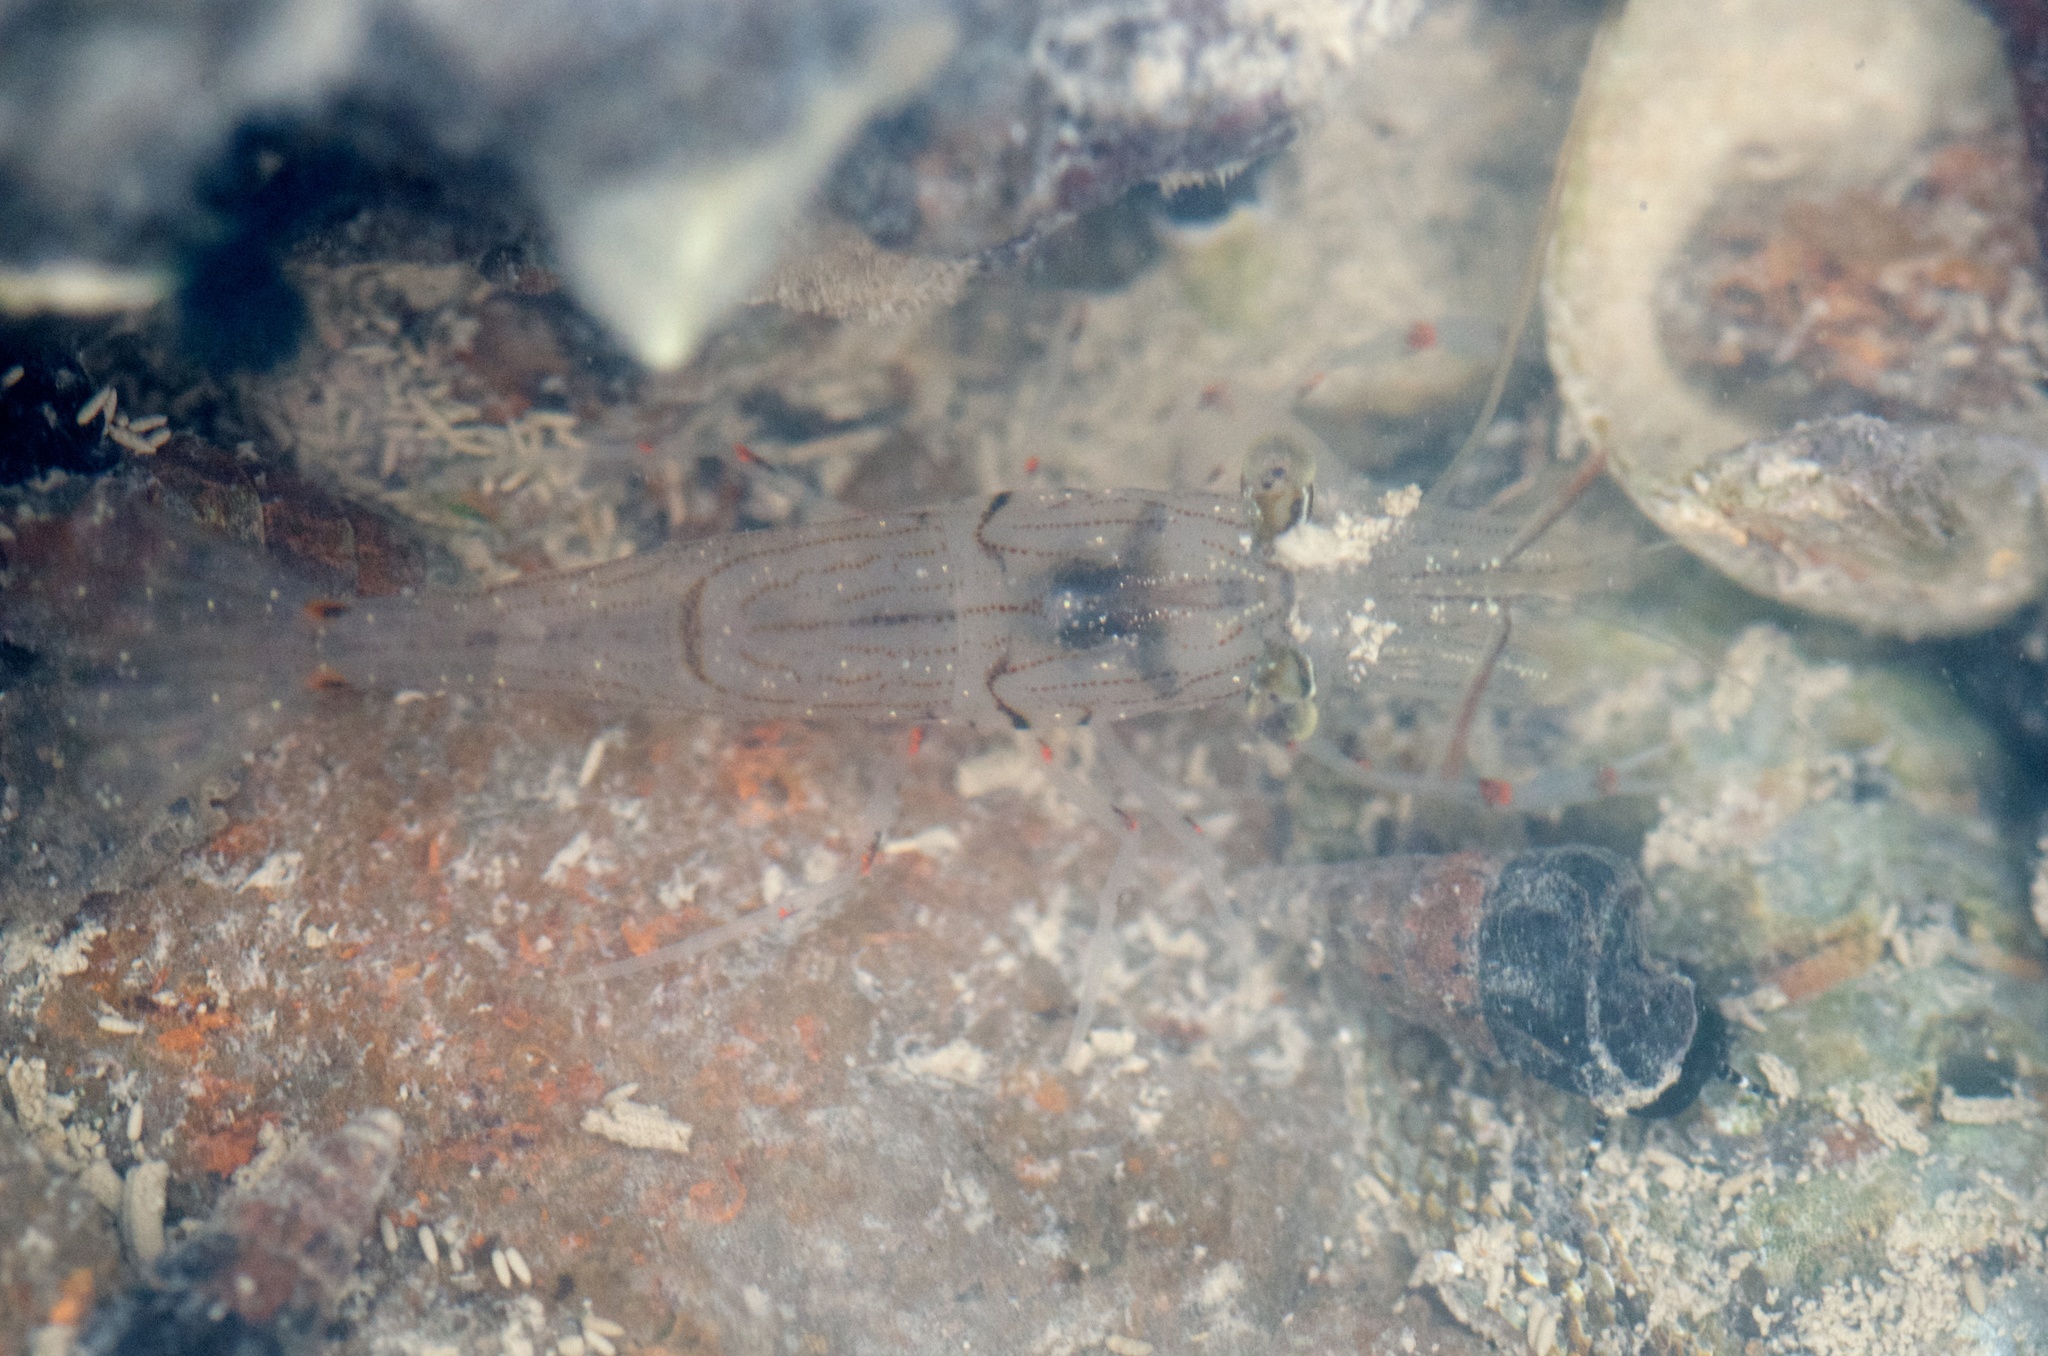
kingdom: Animalia
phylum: Arthropoda
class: Malacostraca
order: Decapoda
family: Palaemonidae
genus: Palaemon
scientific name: Palaemon affinis
